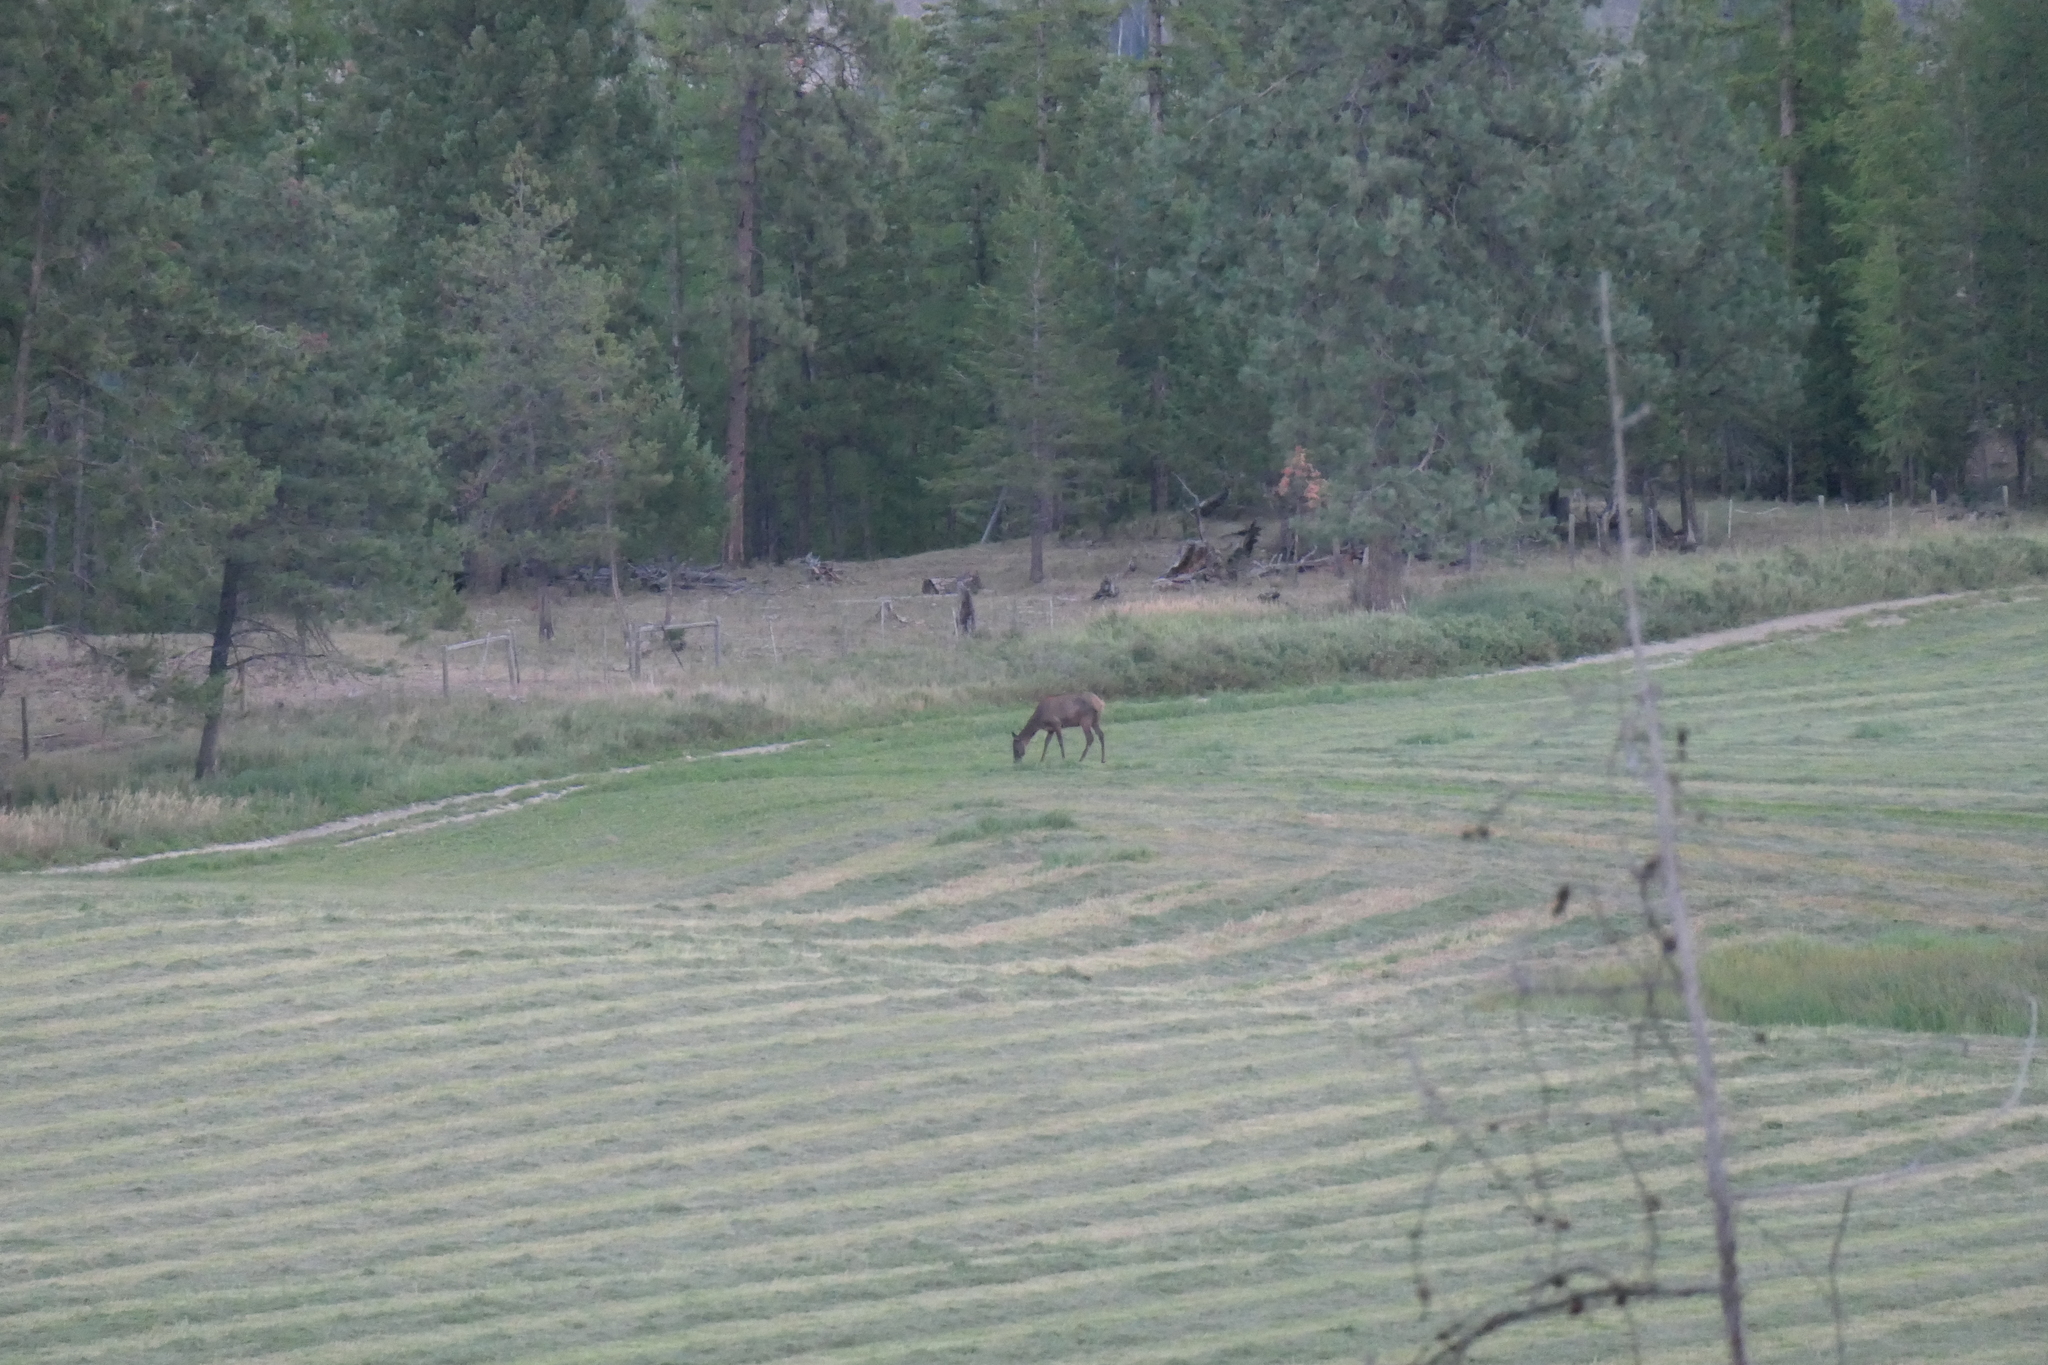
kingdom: Animalia
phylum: Chordata
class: Mammalia
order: Artiodactyla
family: Cervidae
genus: Cervus
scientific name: Cervus elaphus
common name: Red deer
